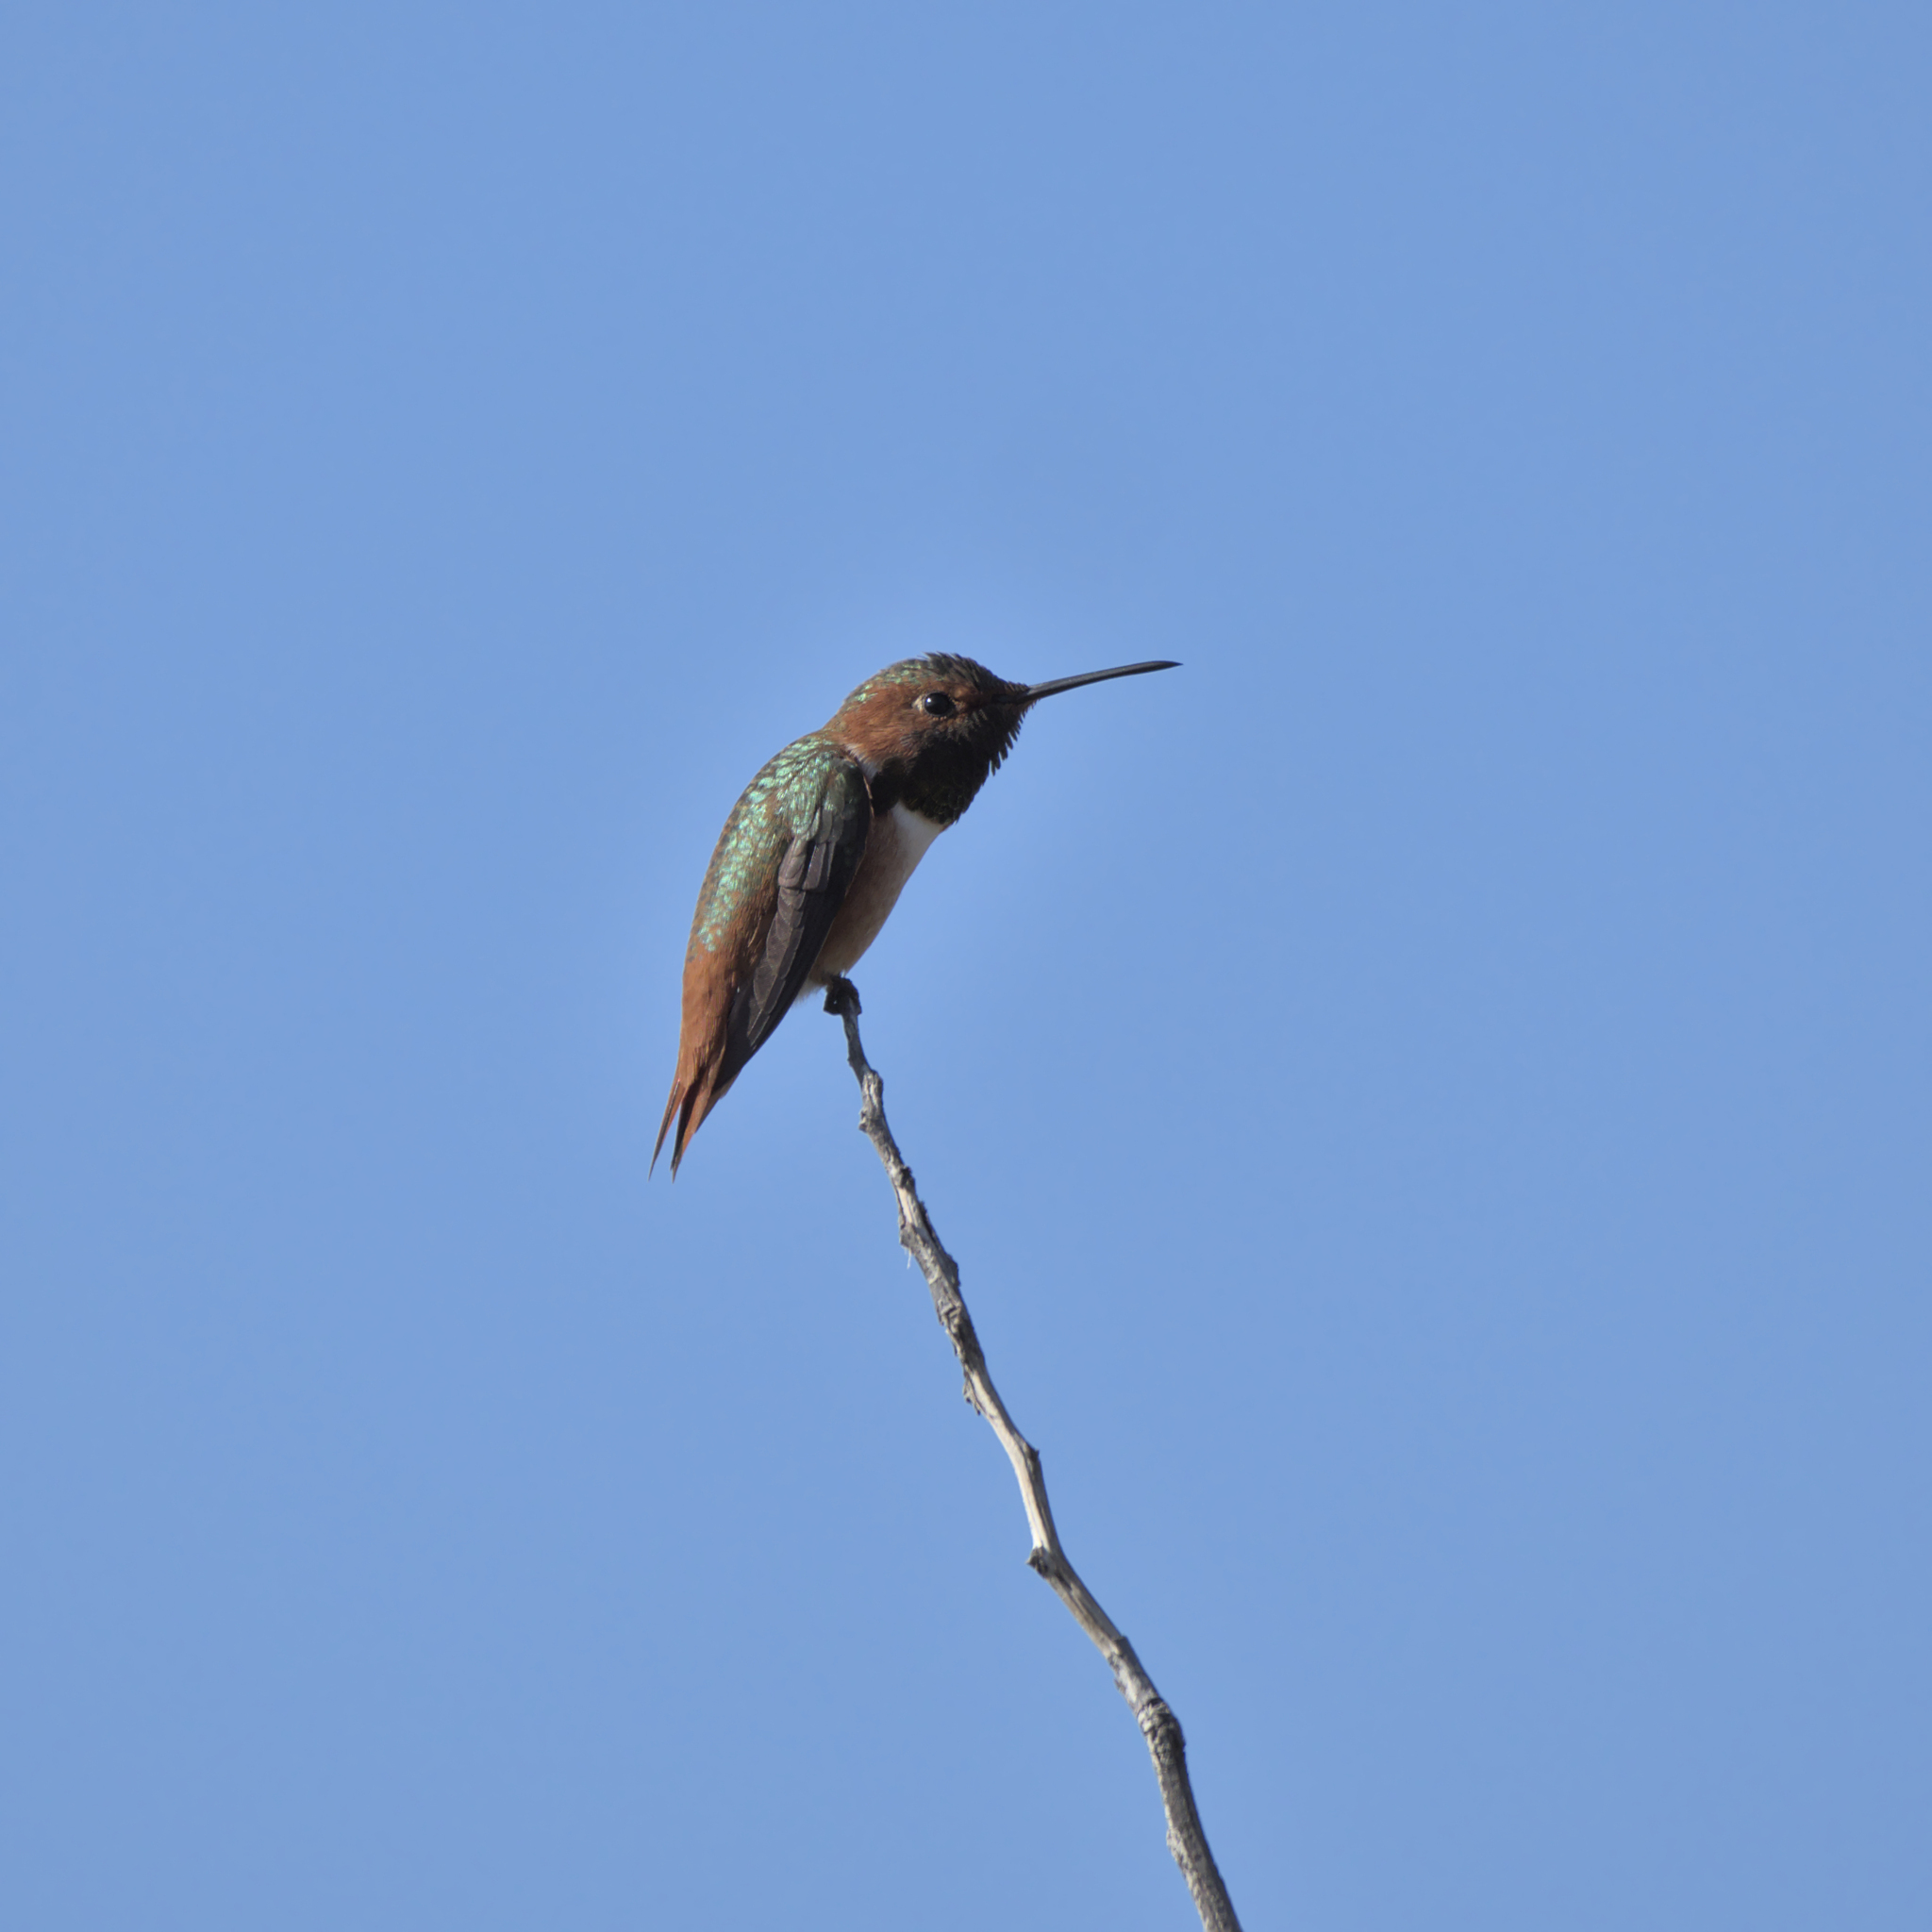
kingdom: Animalia
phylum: Chordata
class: Aves
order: Apodiformes
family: Trochilidae
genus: Selasphorus
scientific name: Selasphorus sasin
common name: Allen's hummingbird
